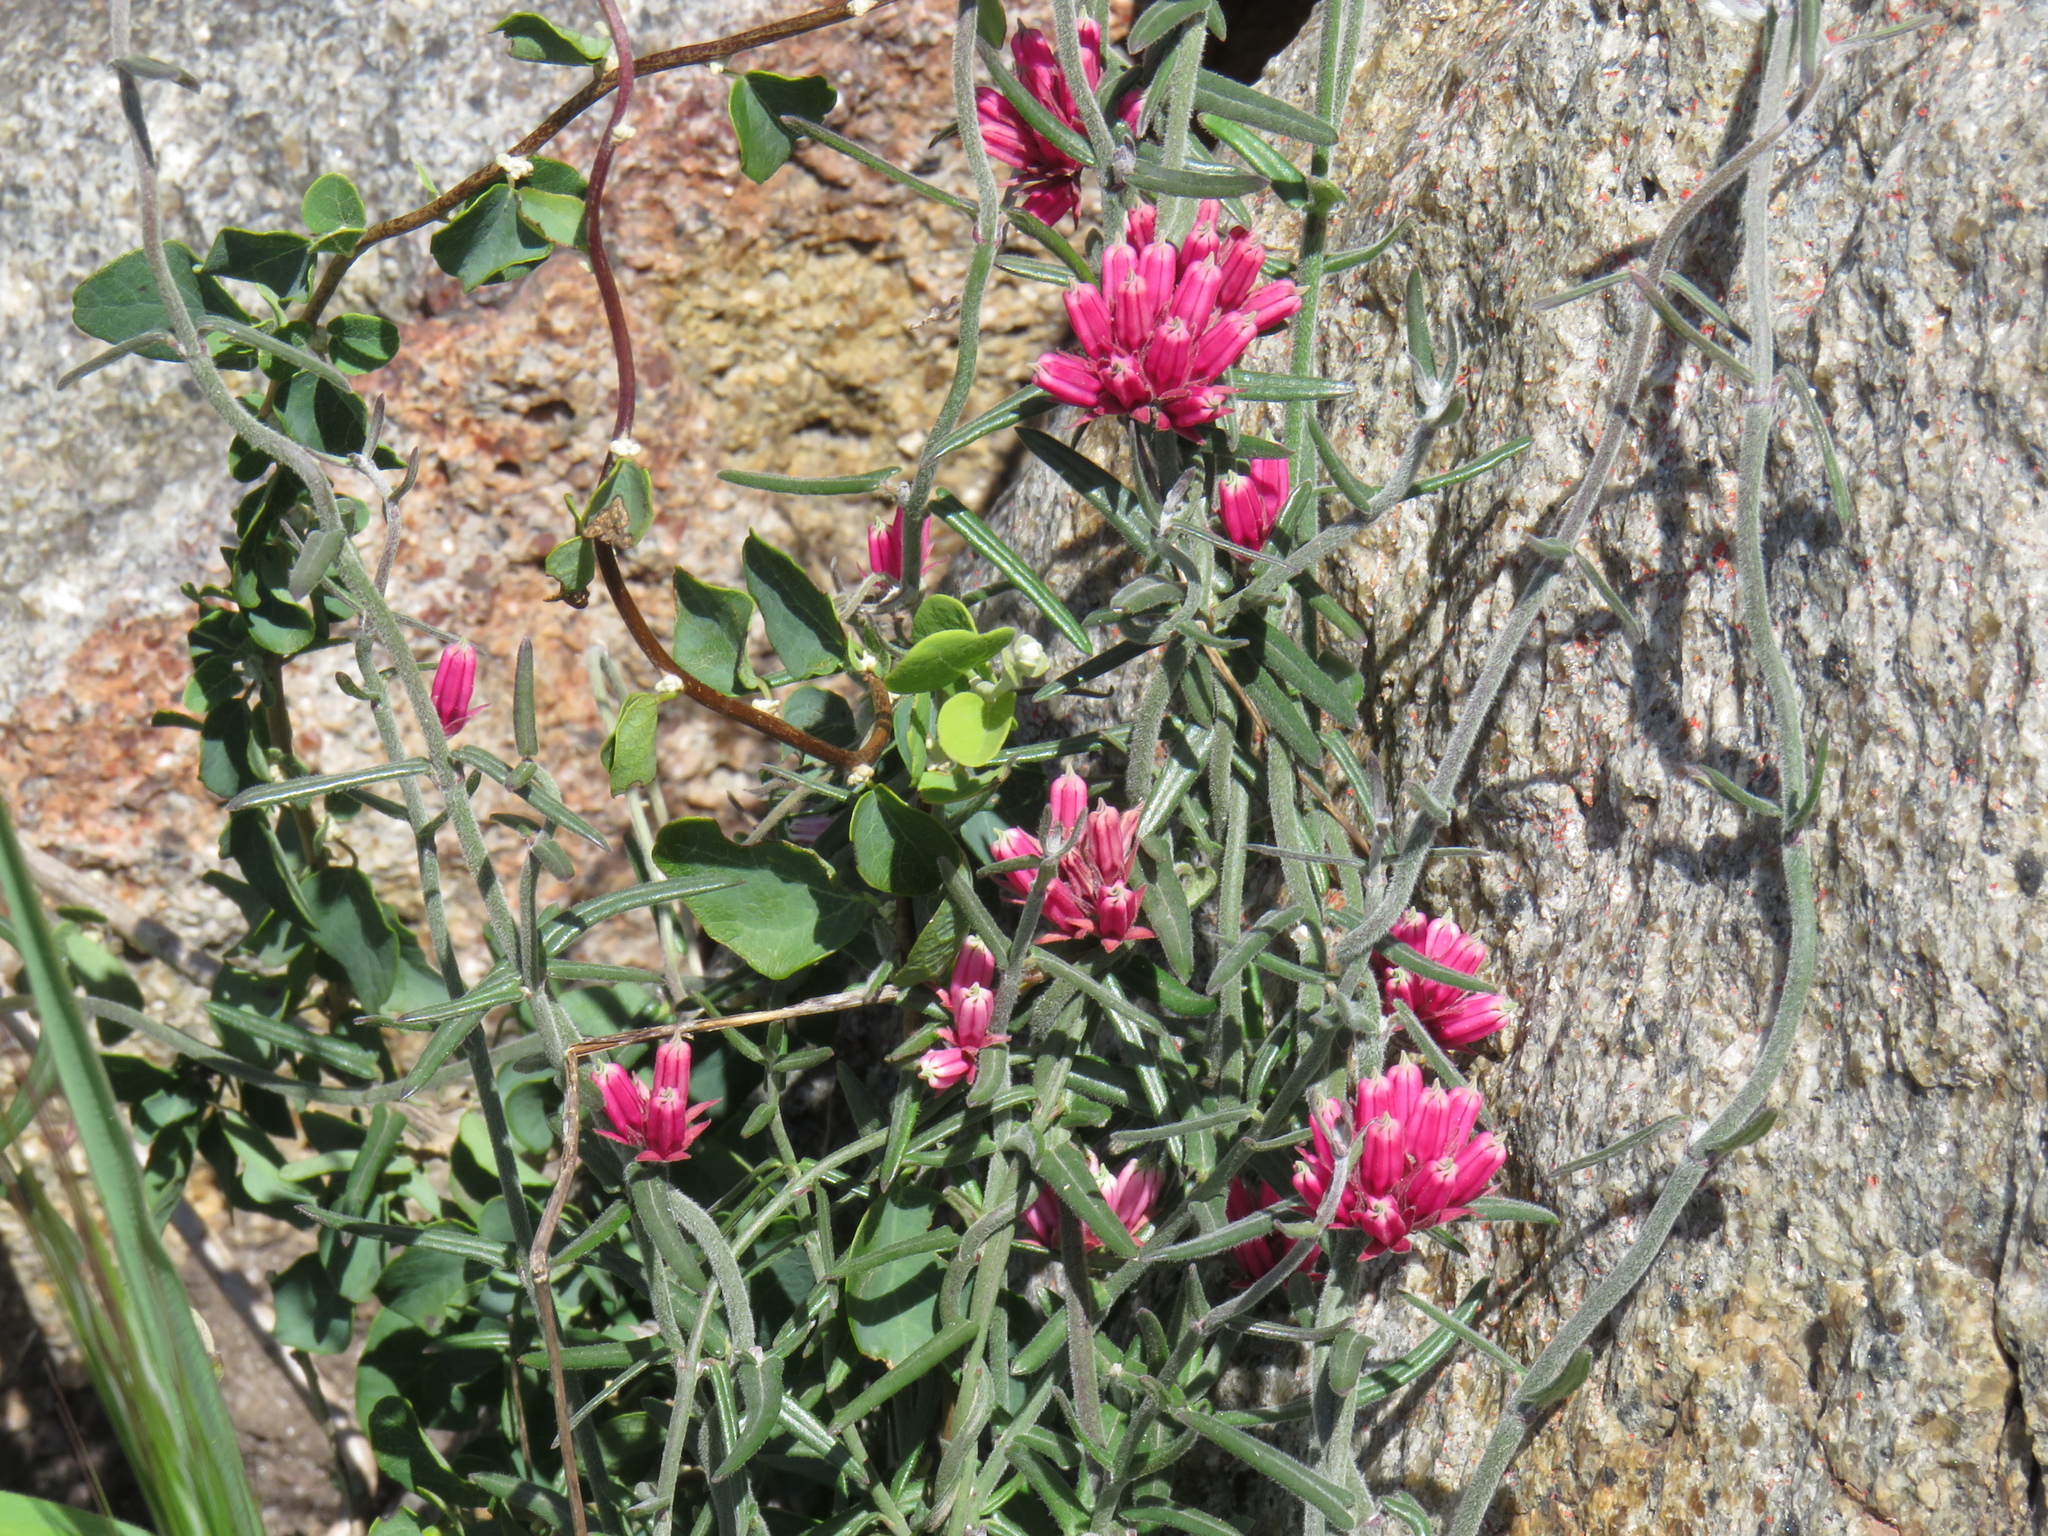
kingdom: Plantae
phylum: Tracheophyta
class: Magnoliopsida
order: Gentianales
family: Apocynaceae
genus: Microloma
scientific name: Microloma sagittatum
